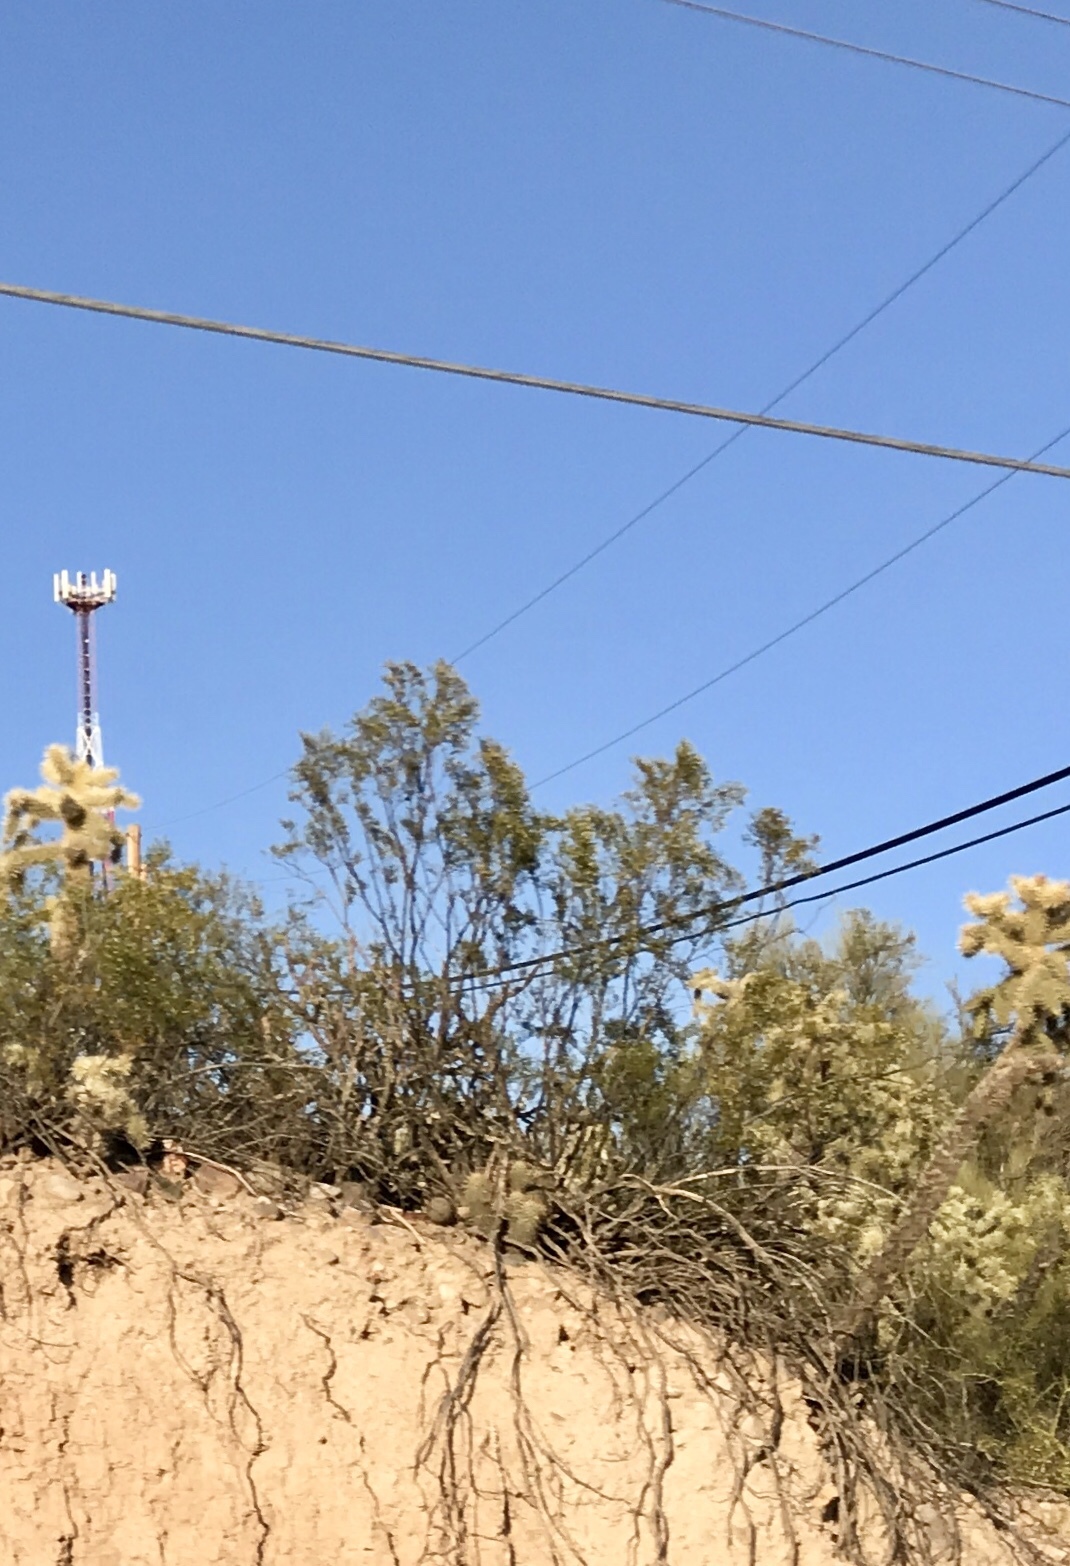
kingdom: Plantae
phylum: Tracheophyta
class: Magnoliopsida
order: Zygophyllales
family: Zygophyllaceae
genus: Larrea
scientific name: Larrea tridentata
